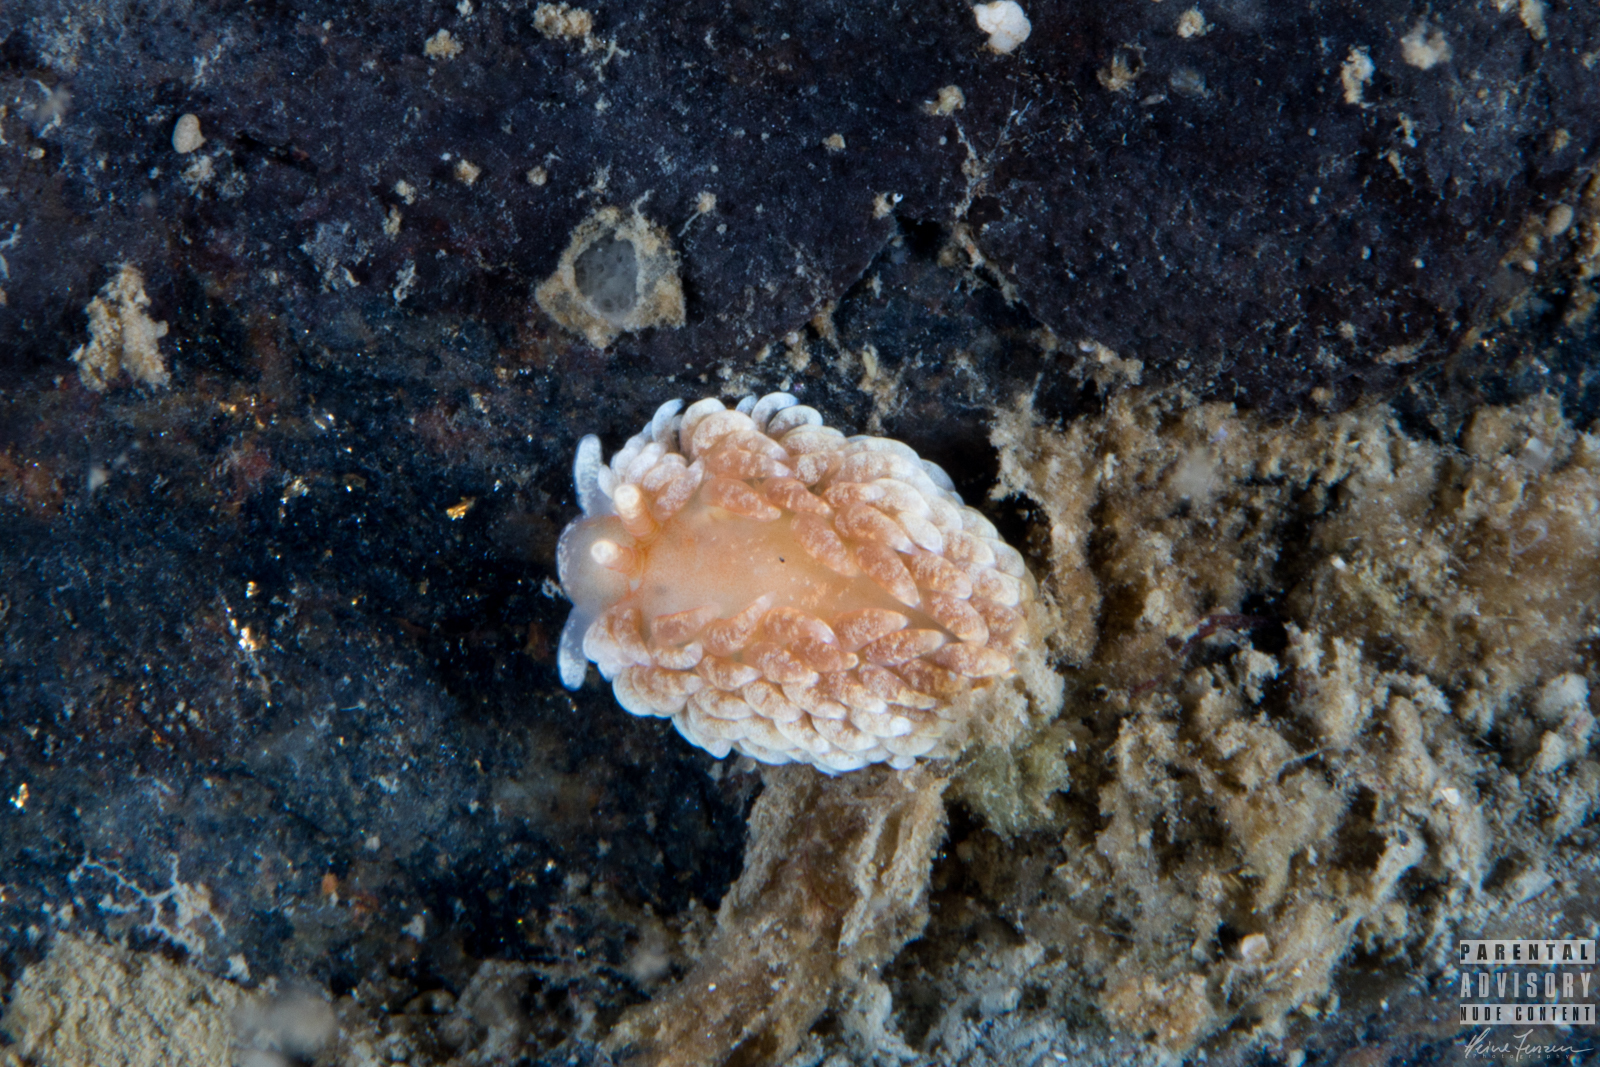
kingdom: Animalia
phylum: Mollusca
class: Gastropoda
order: Nudibranchia
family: Aeolidiidae
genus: Aeolidiella
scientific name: Aeolidiella glauca
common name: Orange-brown aeolid
